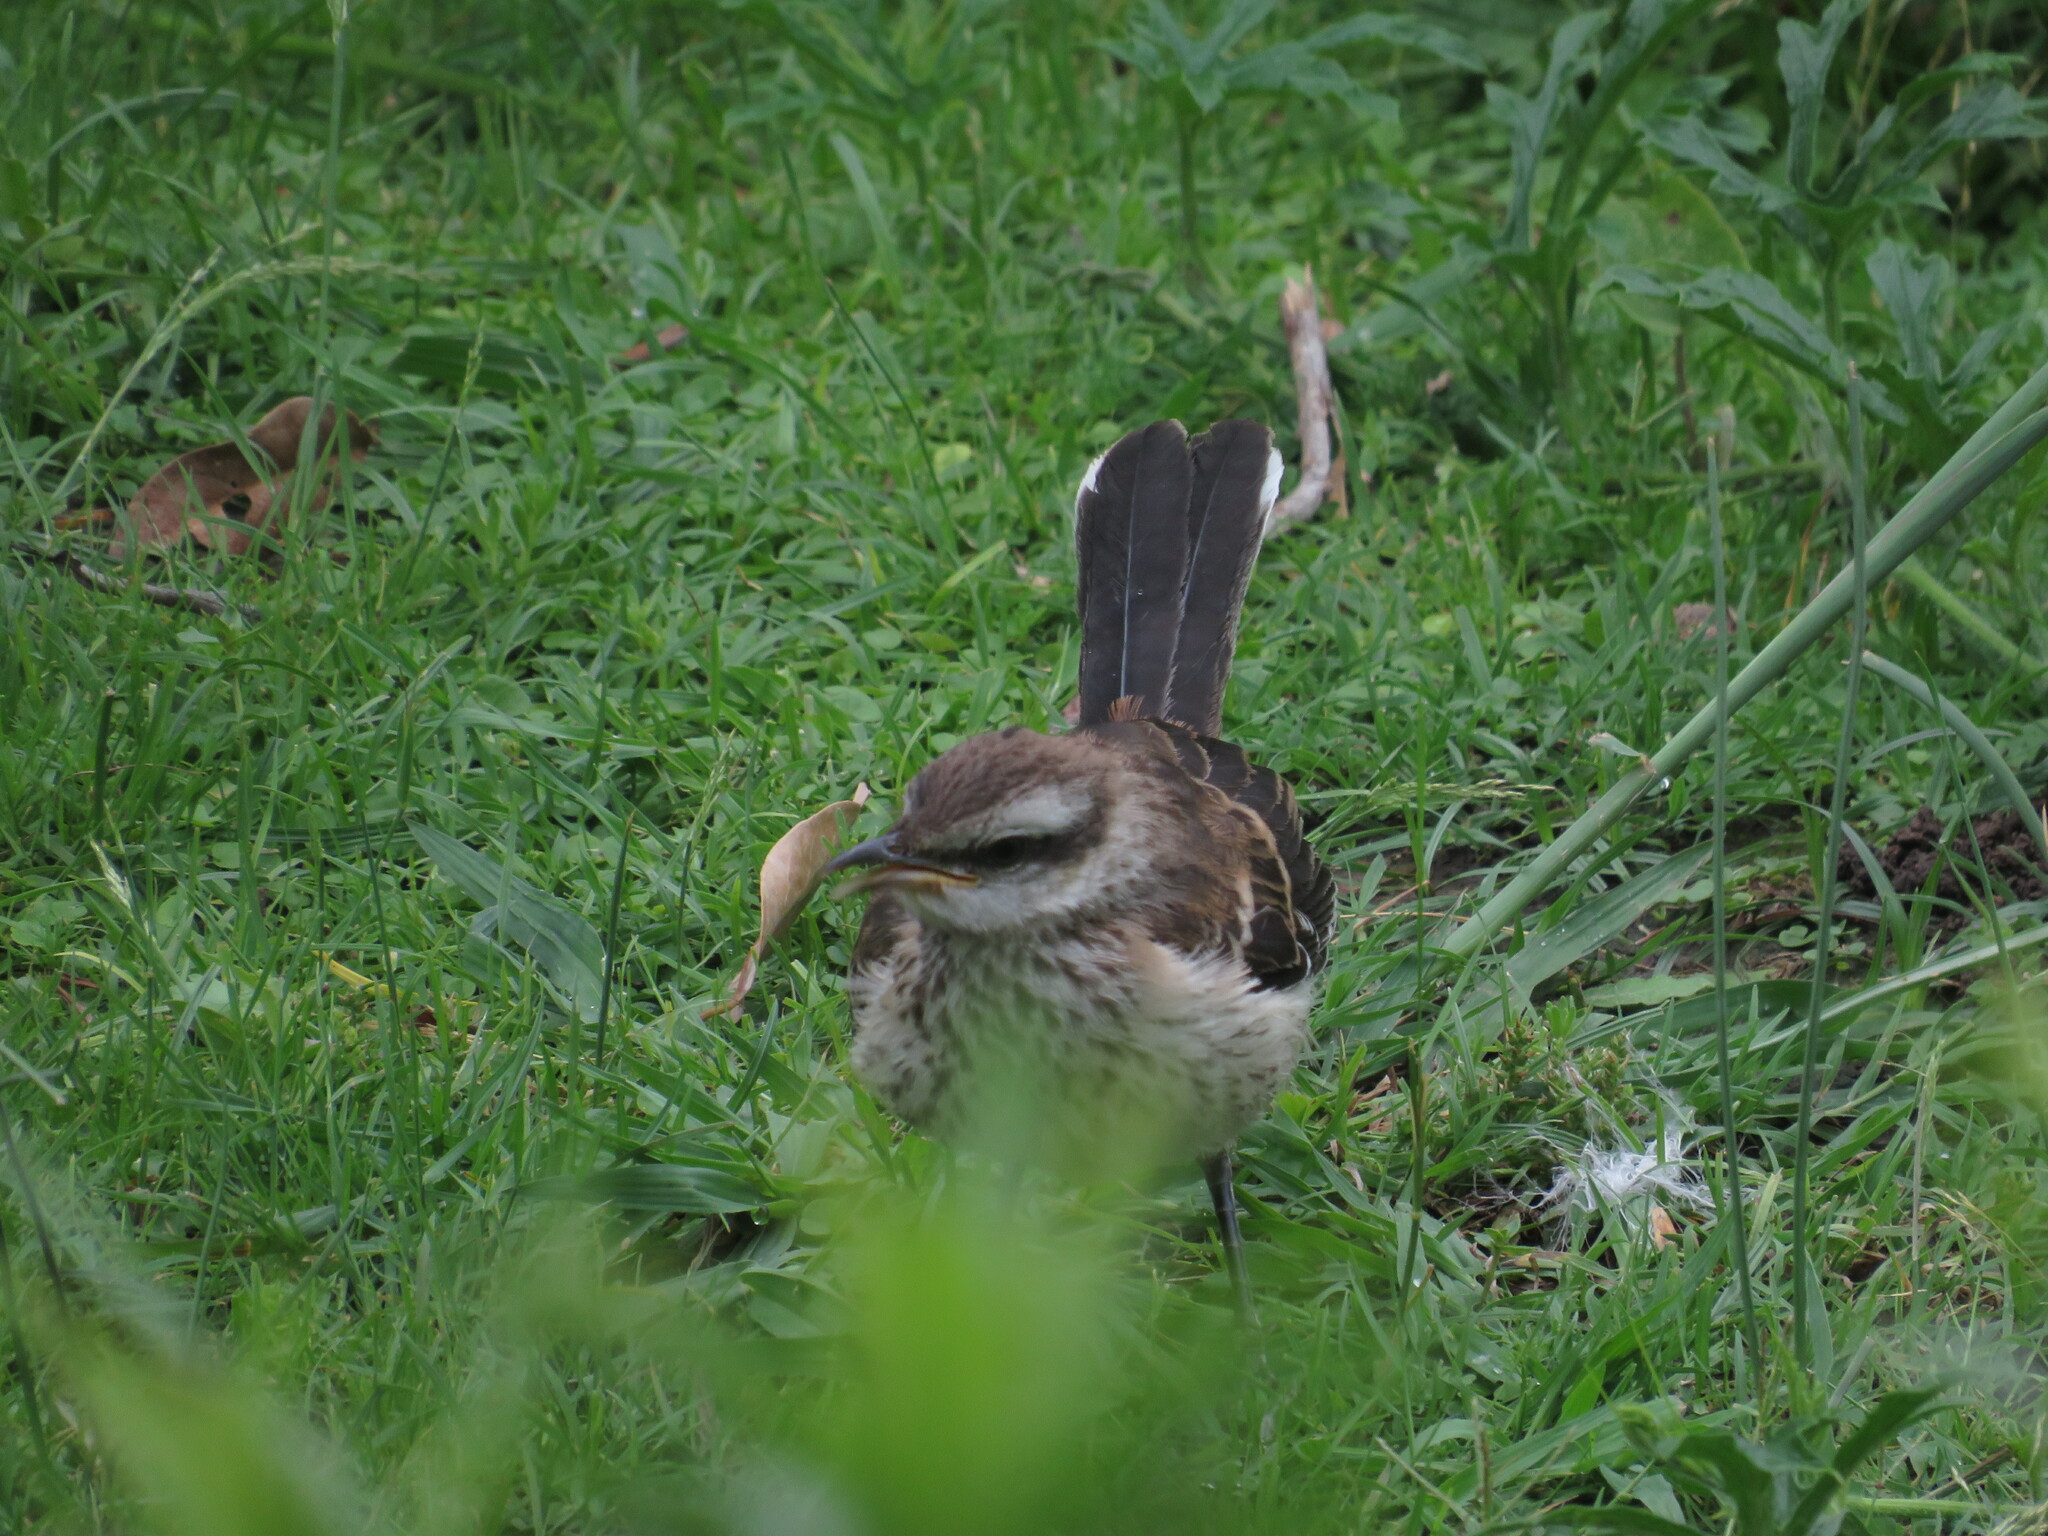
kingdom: Animalia
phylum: Chordata
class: Aves
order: Passeriformes
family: Mimidae
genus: Mimus
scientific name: Mimus saturninus
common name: Chalk-browed mockingbird
